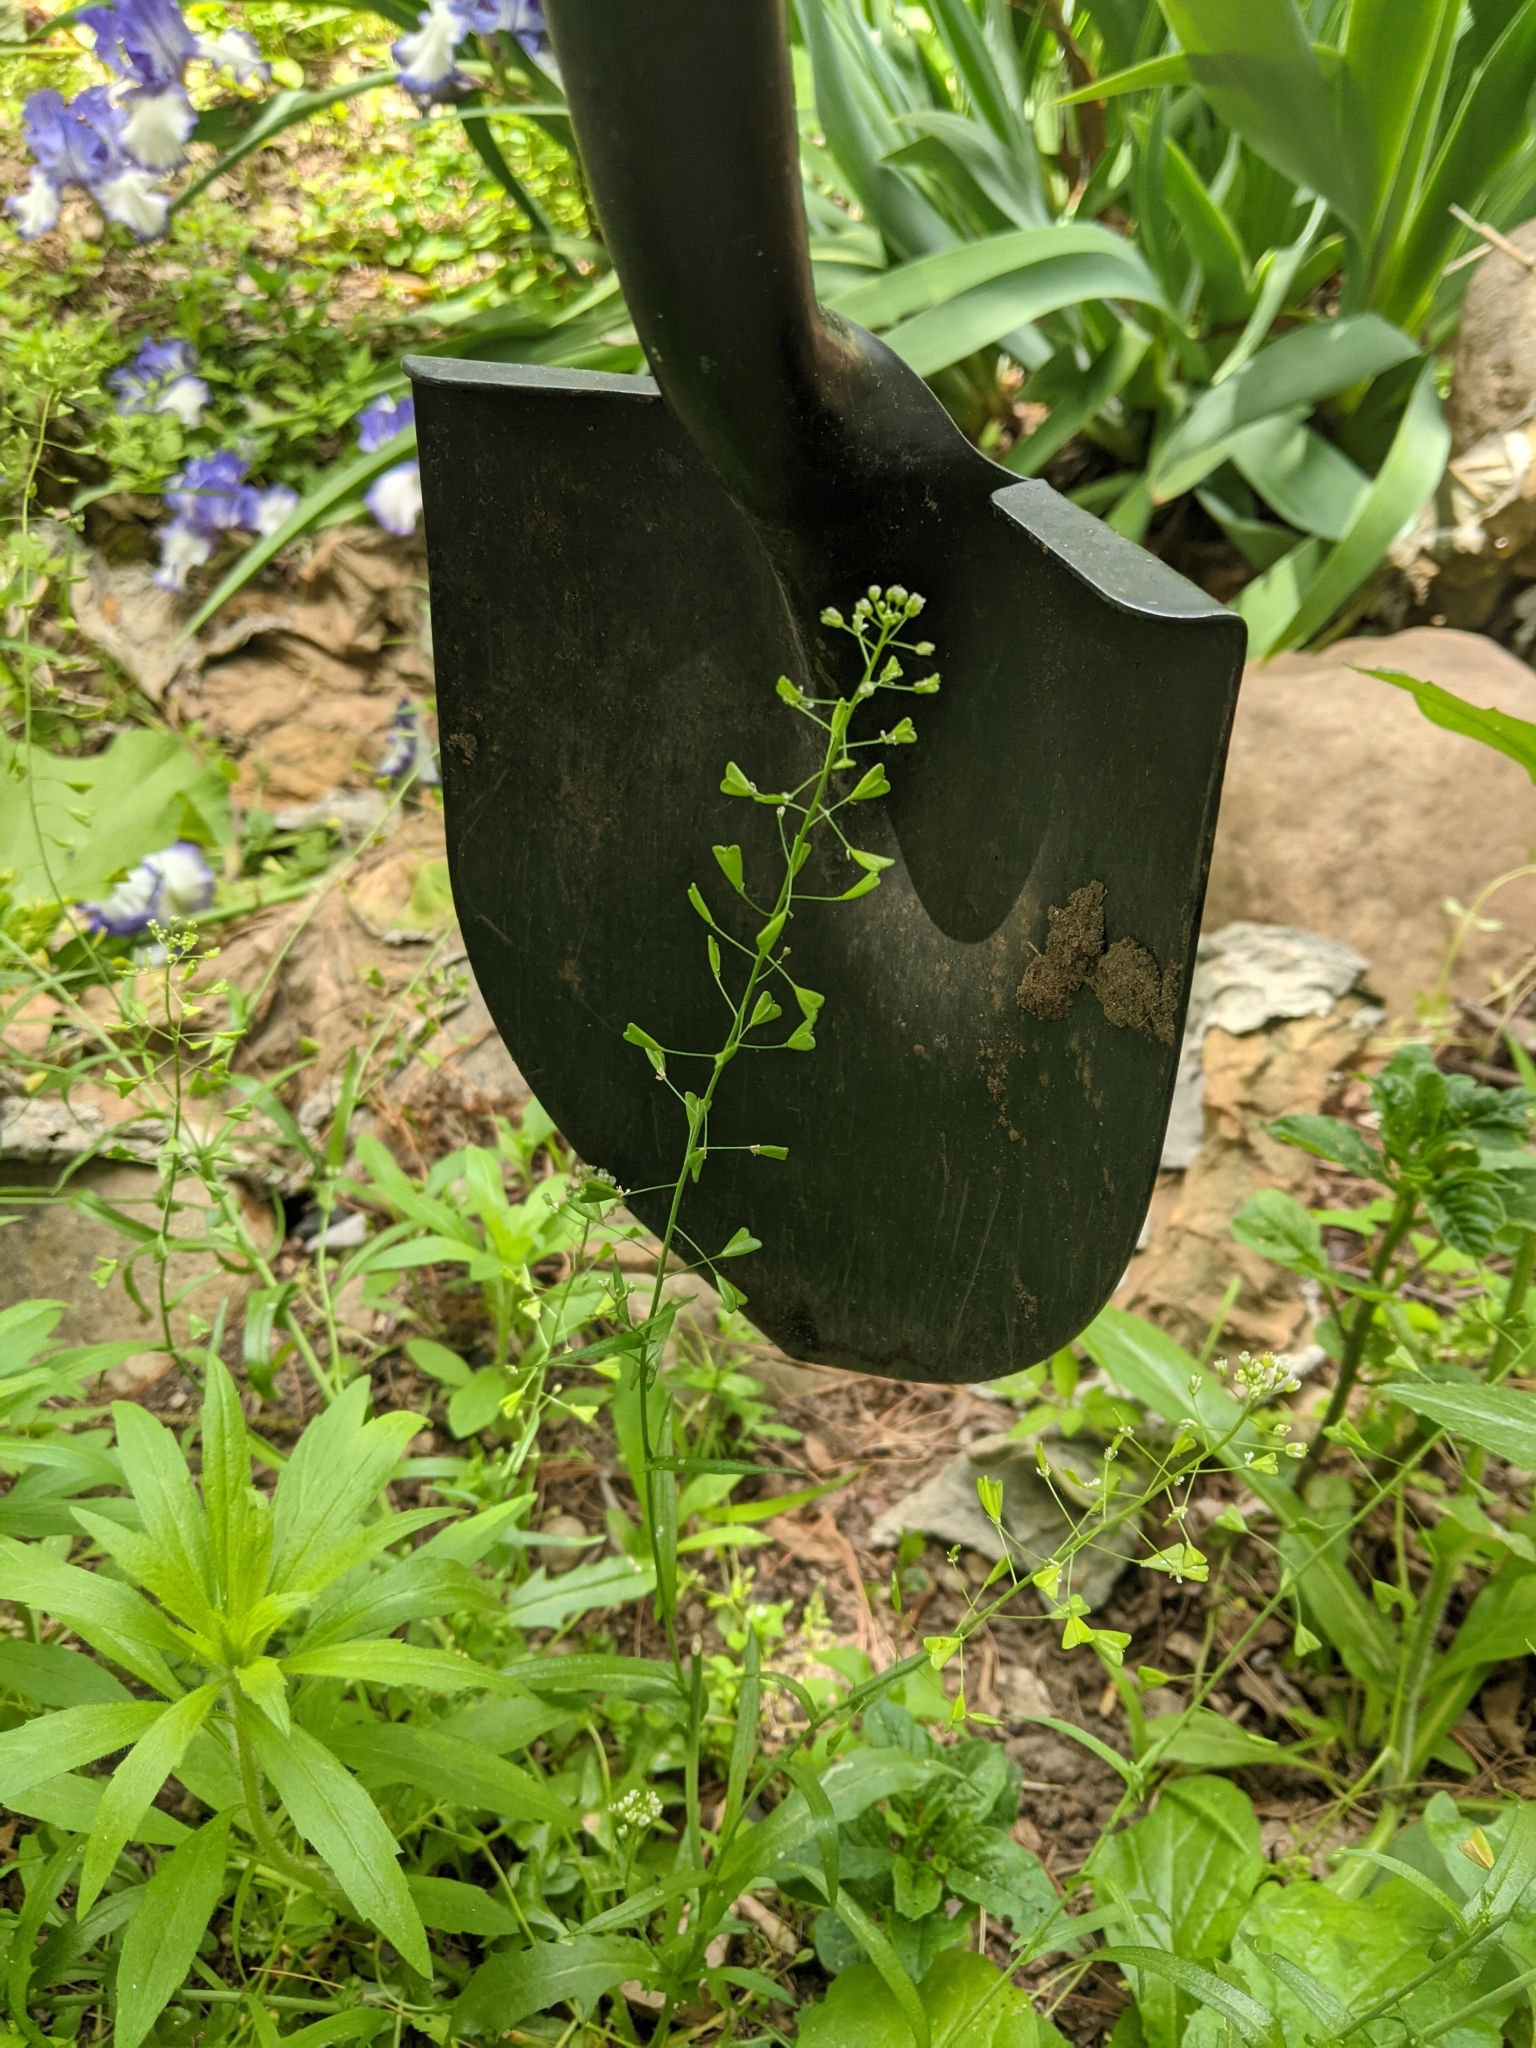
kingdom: Plantae
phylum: Tracheophyta
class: Magnoliopsida
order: Brassicales
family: Brassicaceae
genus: Capsella
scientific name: Capsella bursa-pastoris
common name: Shepherd's purse
